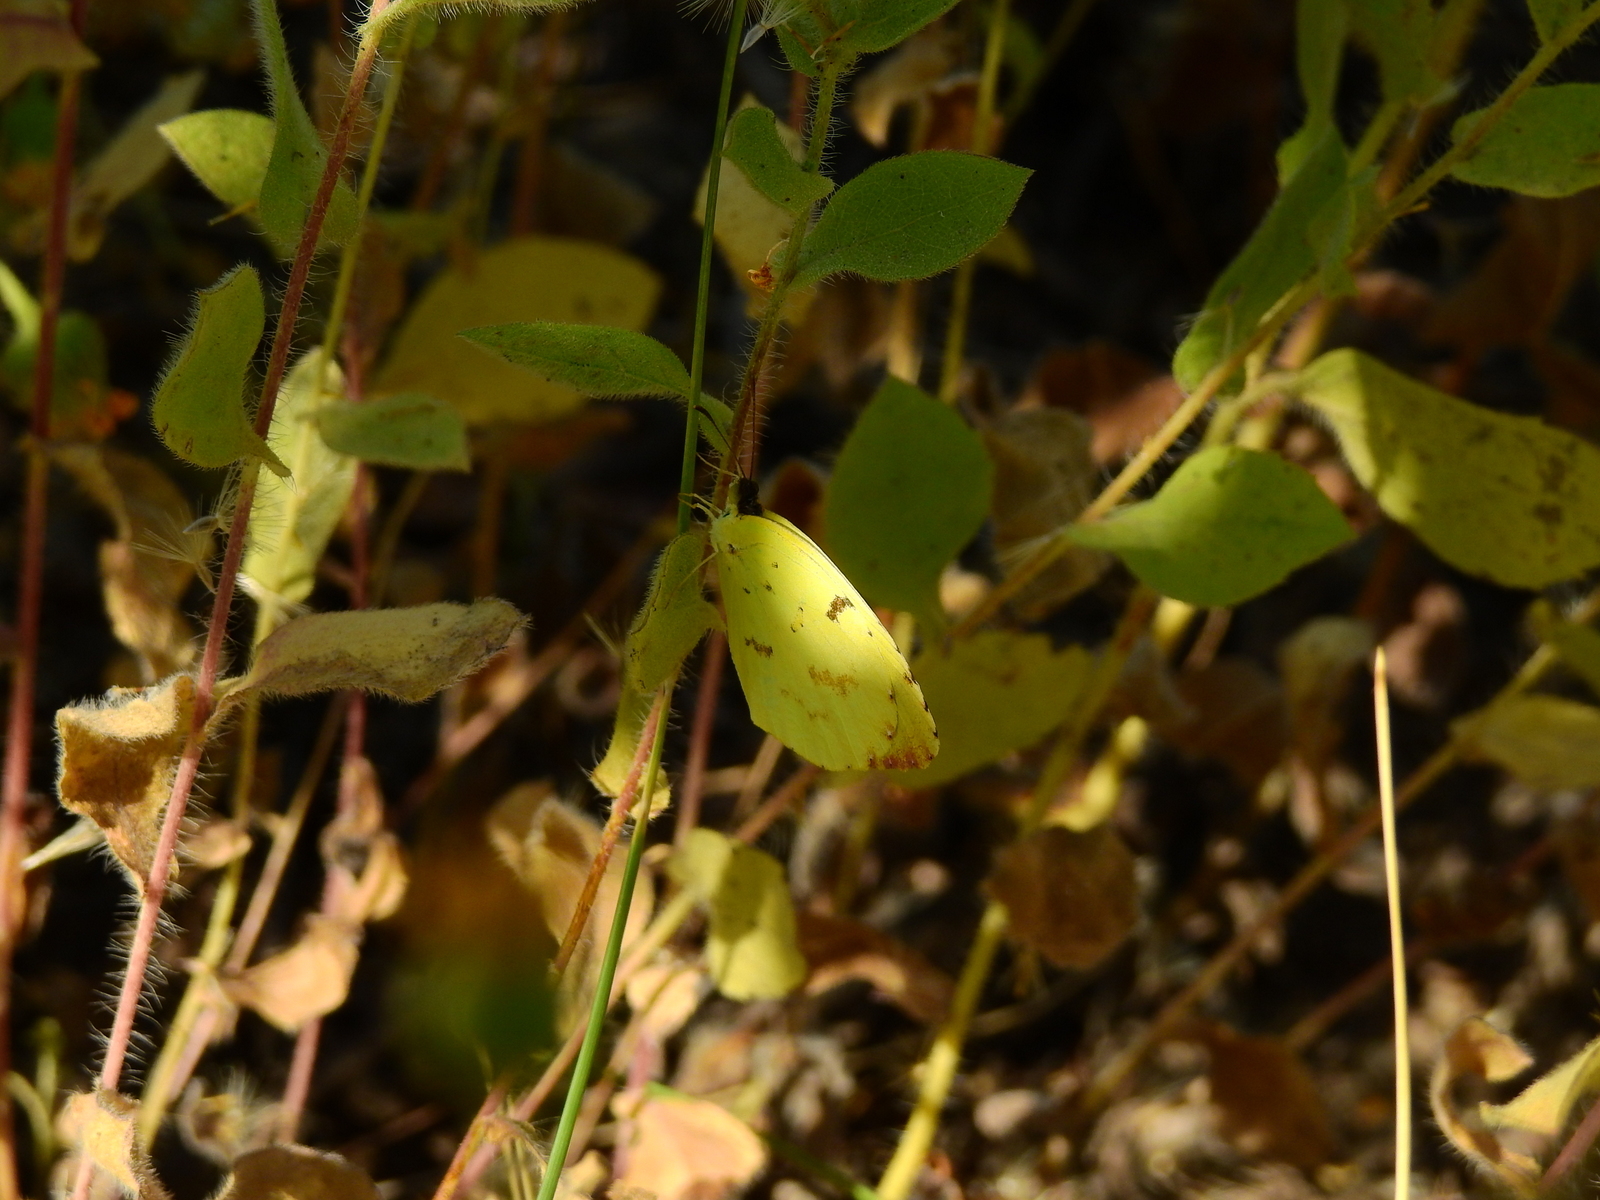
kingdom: Animalia
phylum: Arthropoda
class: Insecta
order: Lepidoptera
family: Pieridae
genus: Teriocolias
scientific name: Teriocolias
